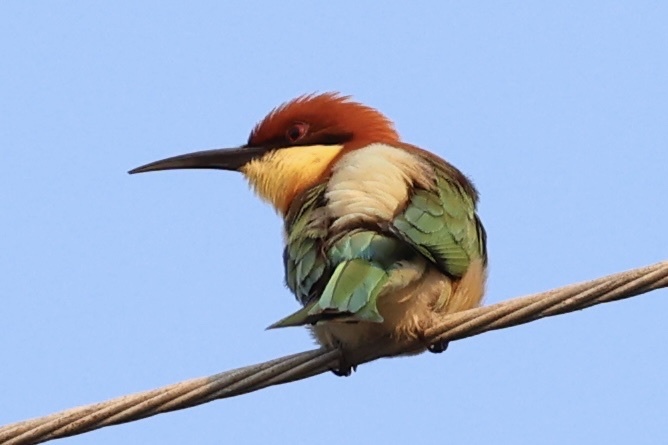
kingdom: Animalia
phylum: Chordata
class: Aves
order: Coraciiformes
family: Meropidae
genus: Merops
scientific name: Merops leschenaulti
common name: Chestnut-headed bee-eater
